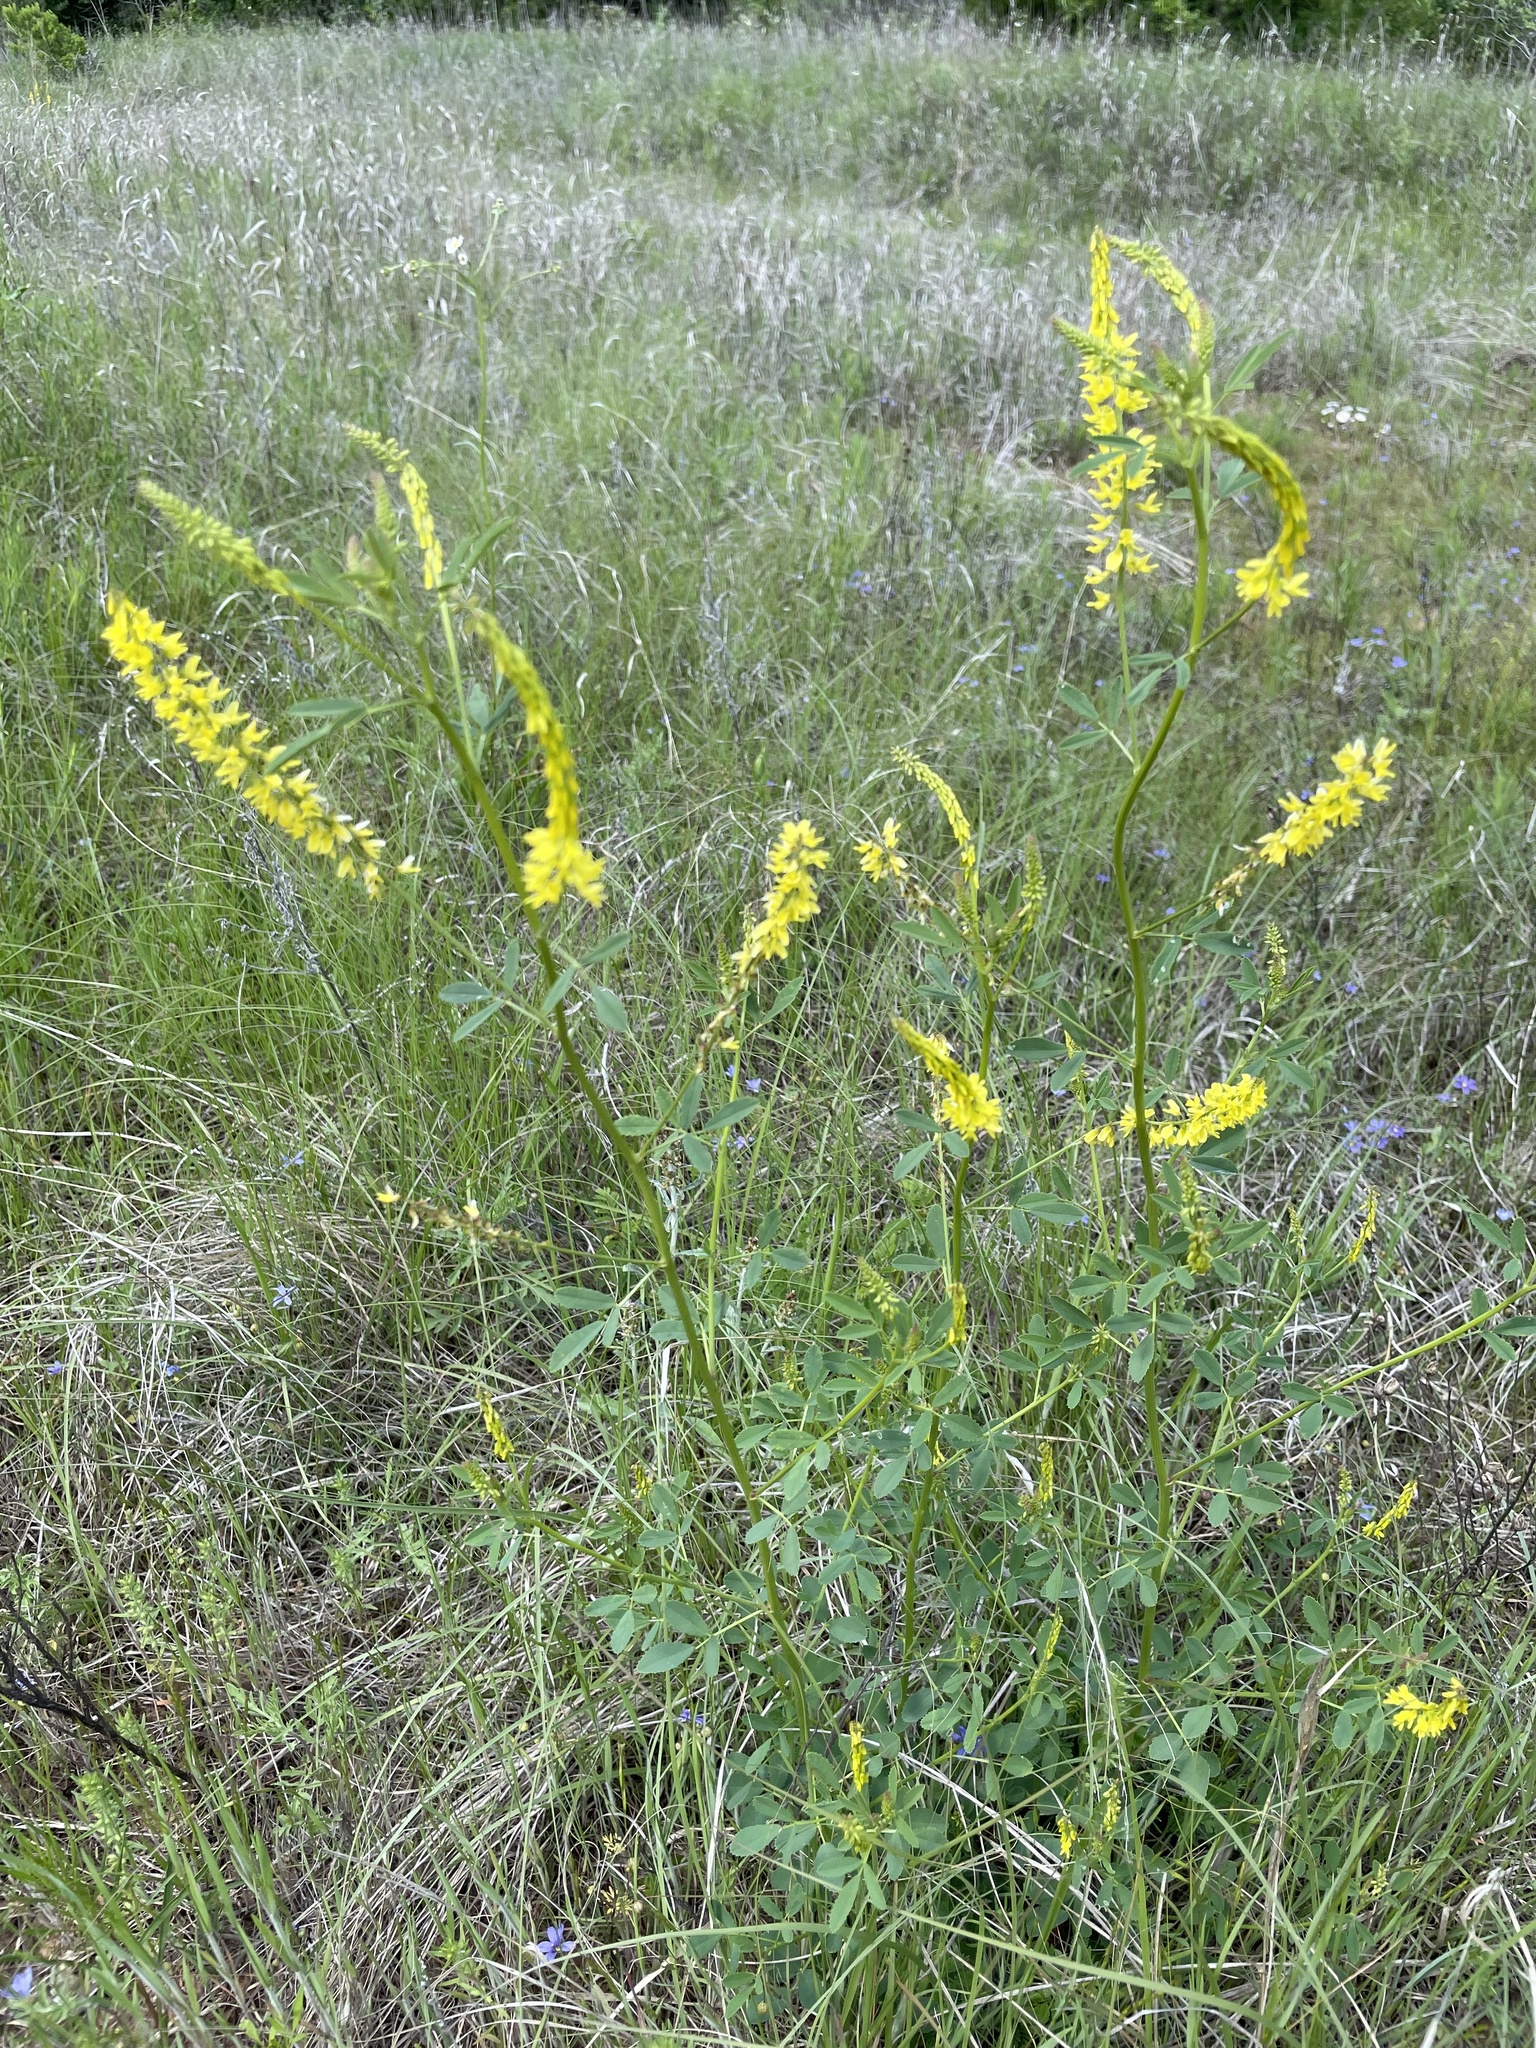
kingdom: Plantae
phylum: Tracheophyta
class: Magnoliopsida
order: Fabales
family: Fabaceae
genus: Melilotus
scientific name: Melilotus officinalis
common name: Sweetclover
